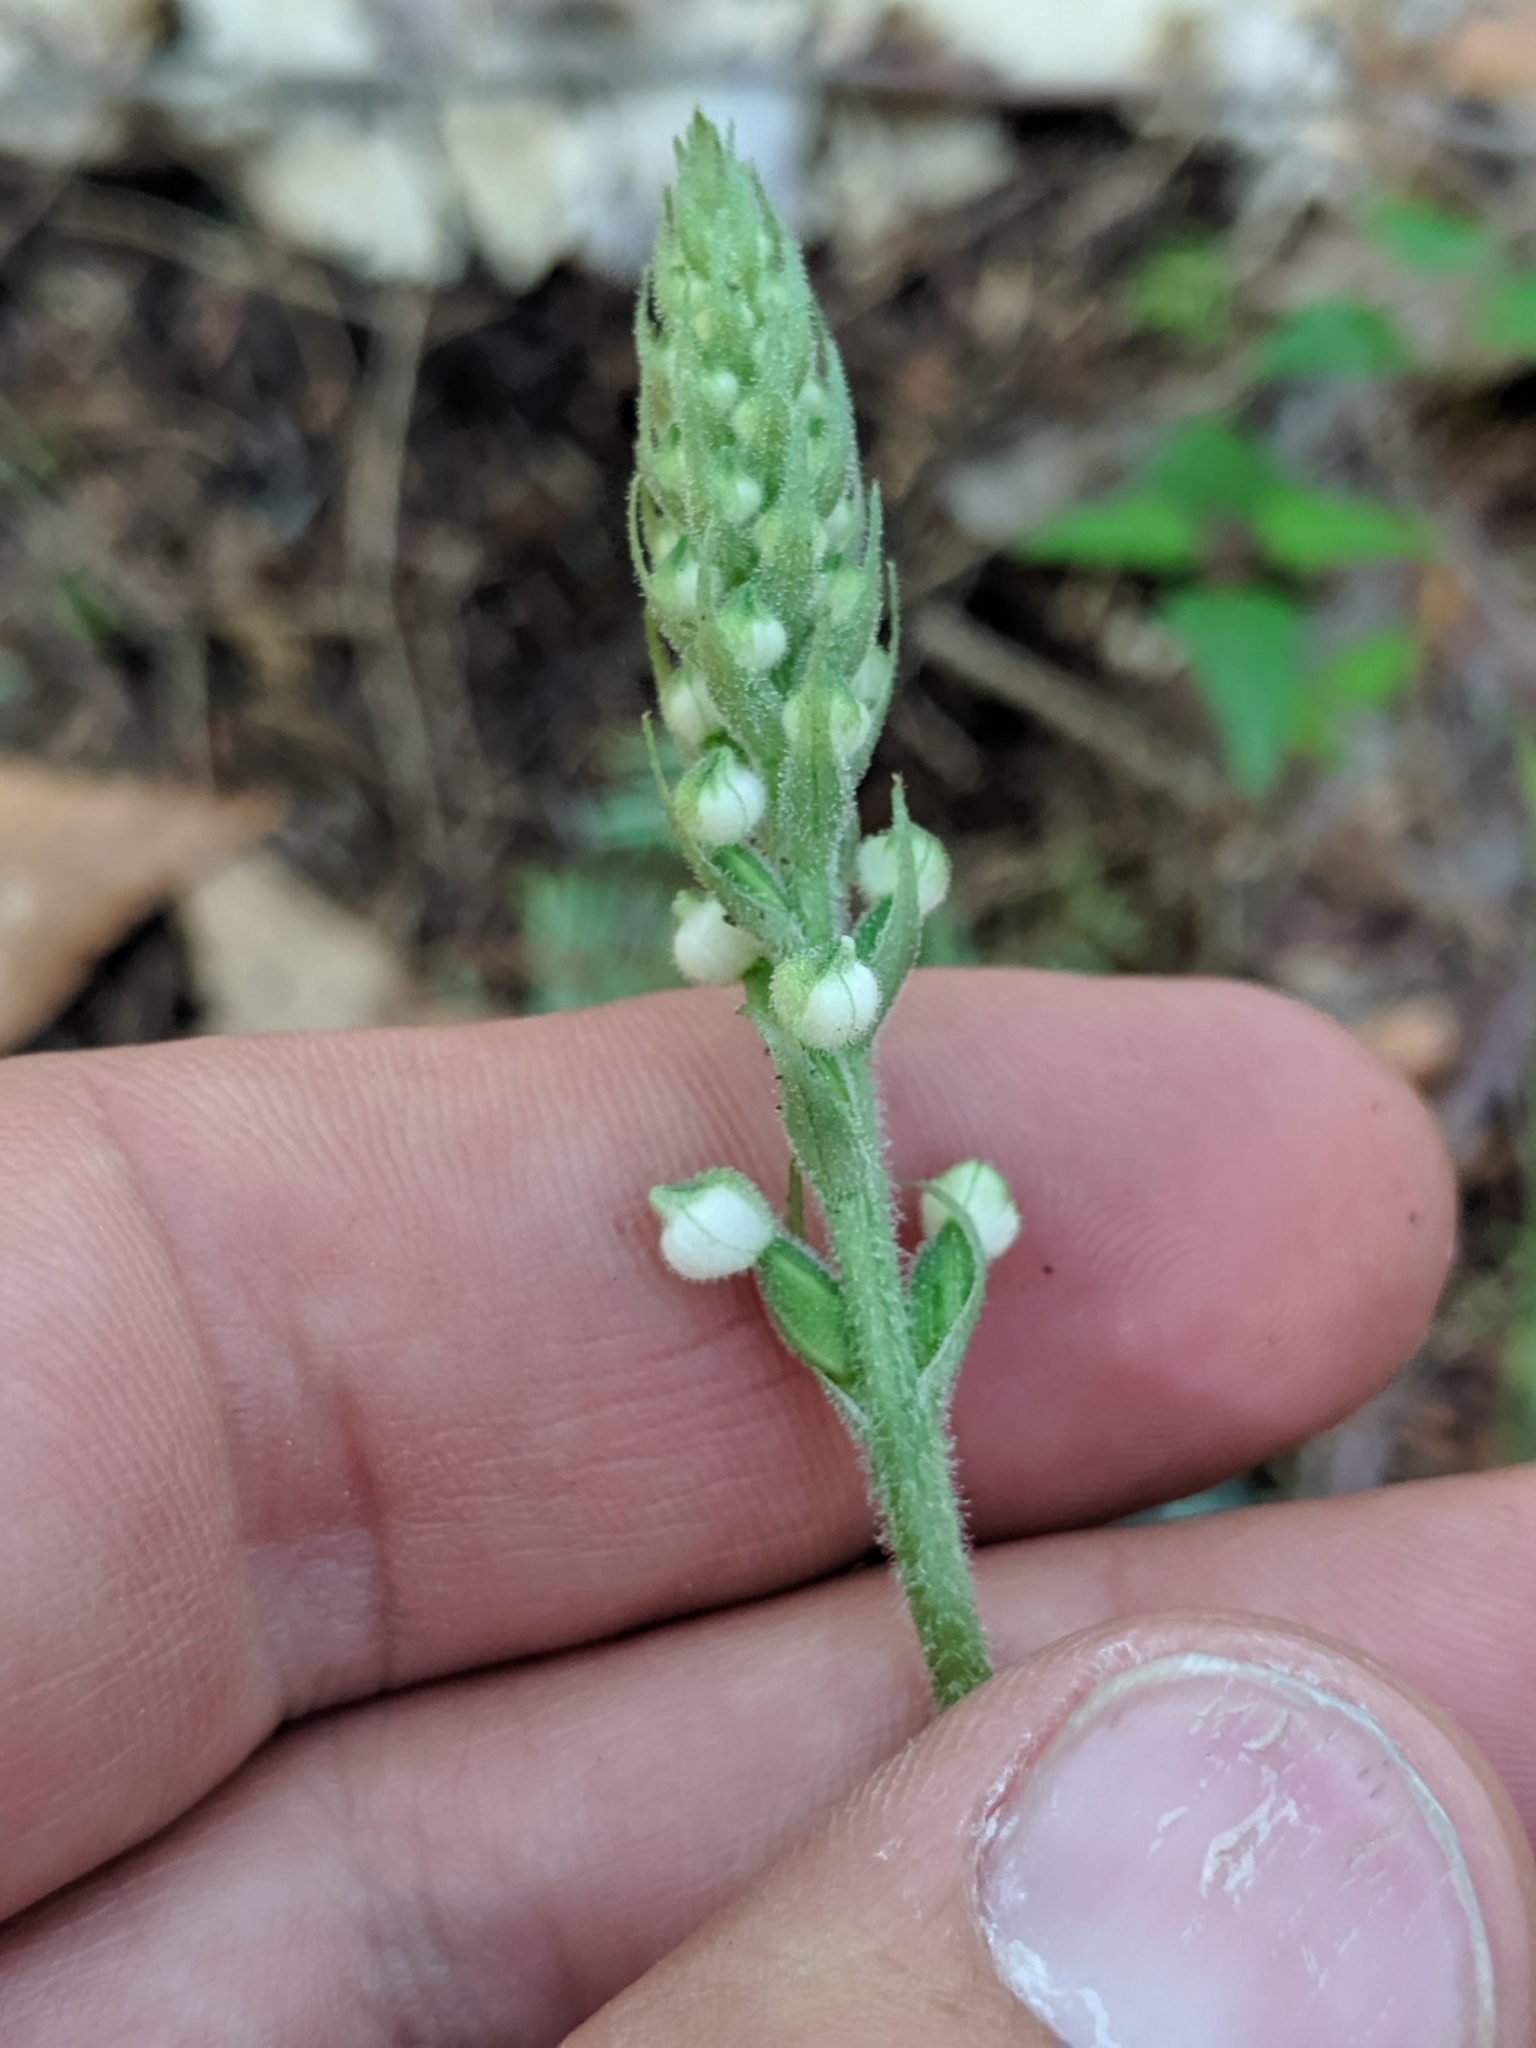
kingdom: Plantae
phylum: Tracheophyta
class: Liliopsida
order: Asparagales
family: Orchidaceae
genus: Goodyera
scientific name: Goodyera pubescens
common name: Downy rattlesnake-plantain
